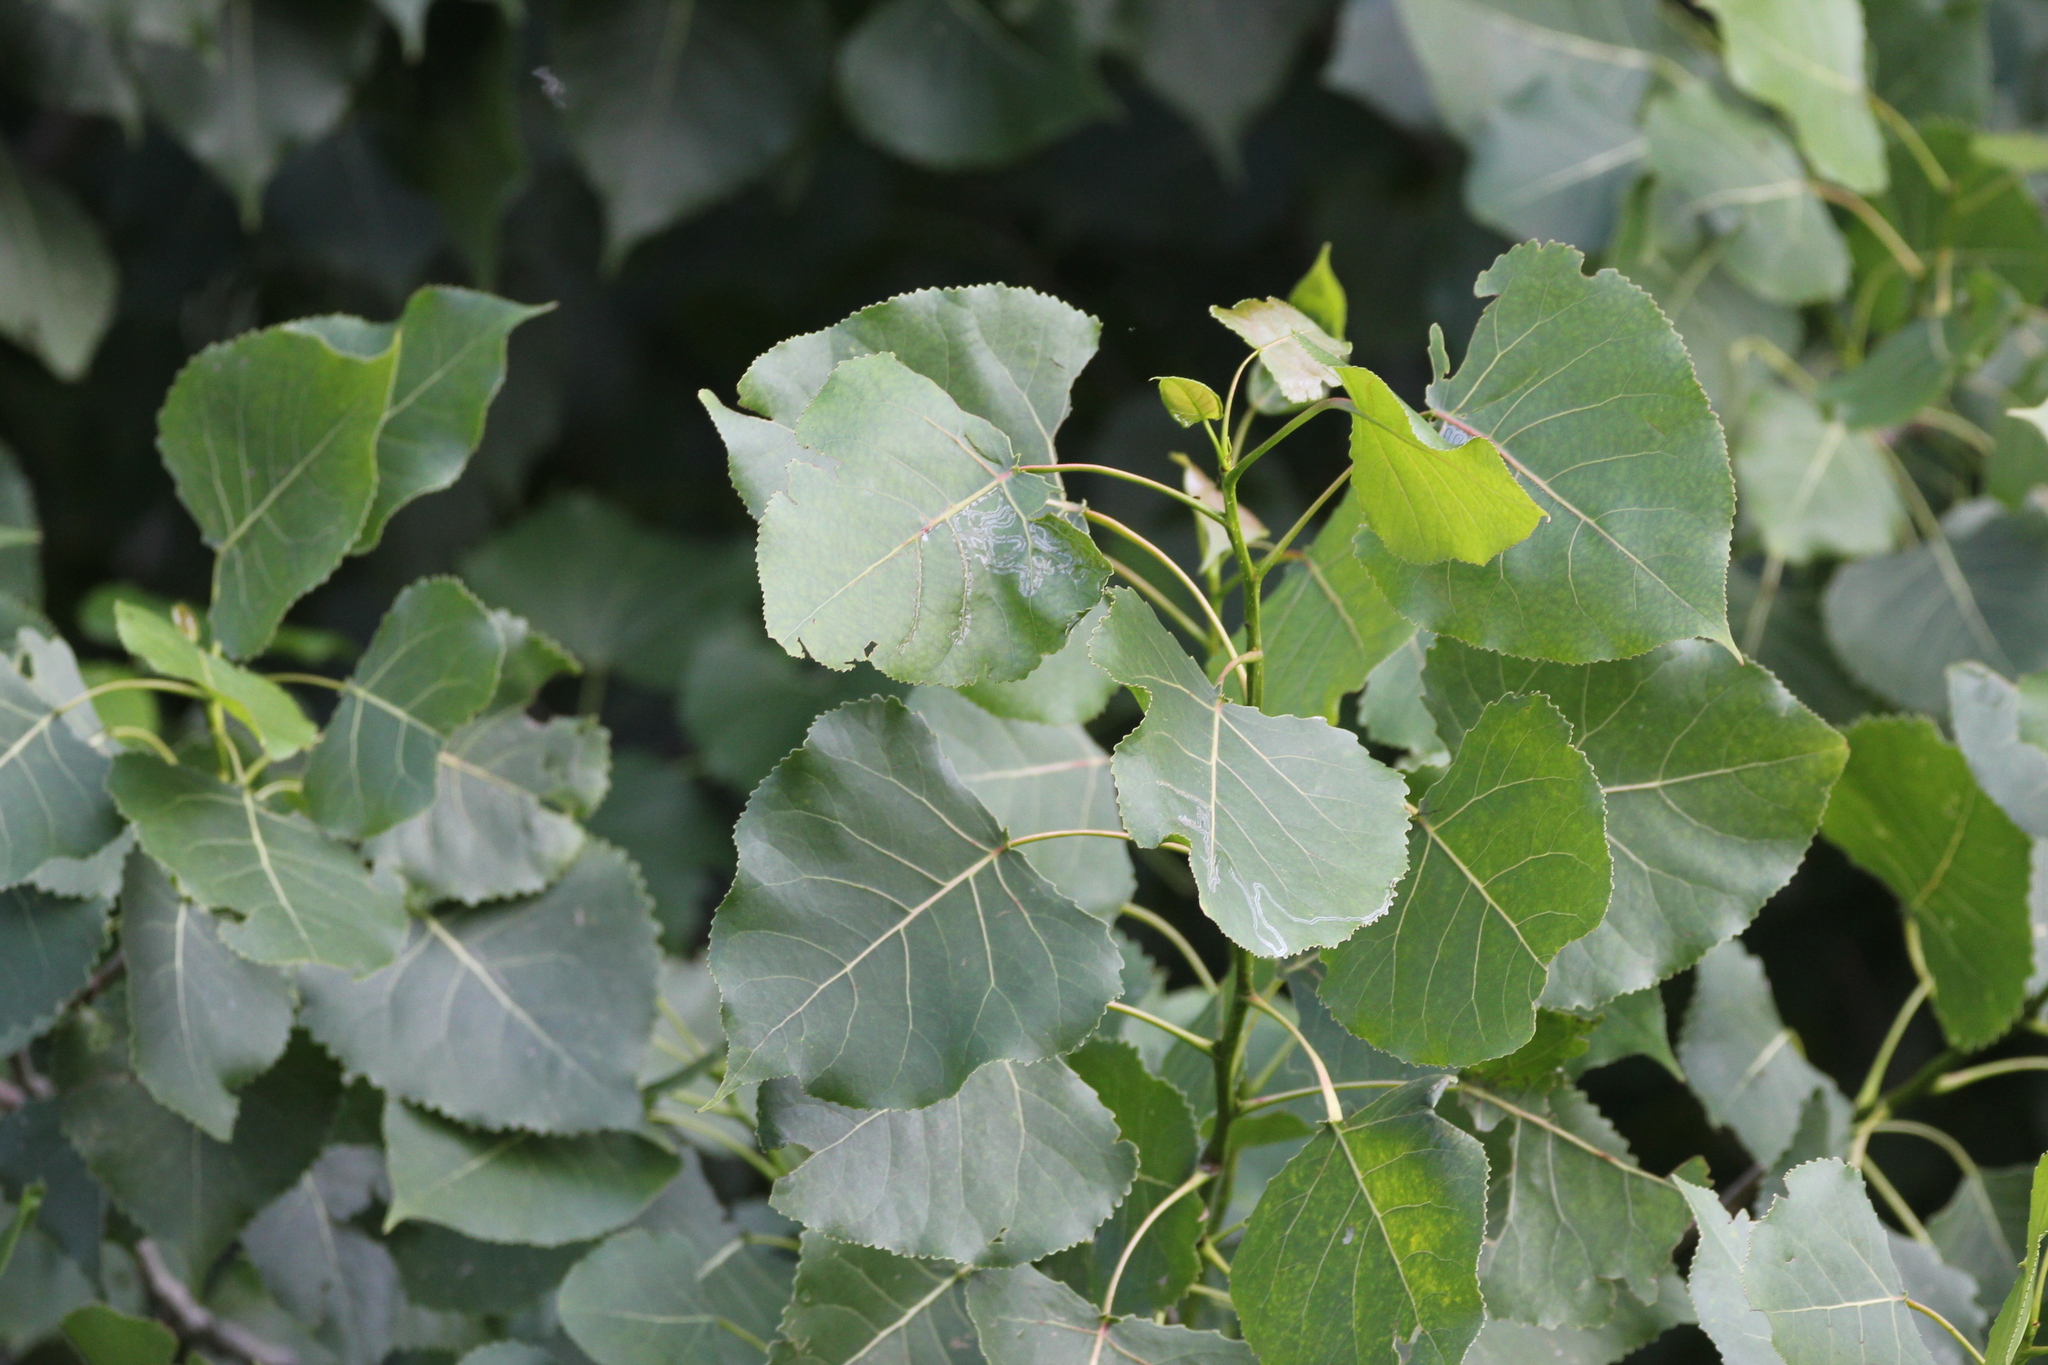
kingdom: Plantae
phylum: Tracheophyta
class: Magnoliopsida
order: Malpighiales
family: Salicaceae
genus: Populus
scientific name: Populus deltoides
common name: Eastern cottonwood
